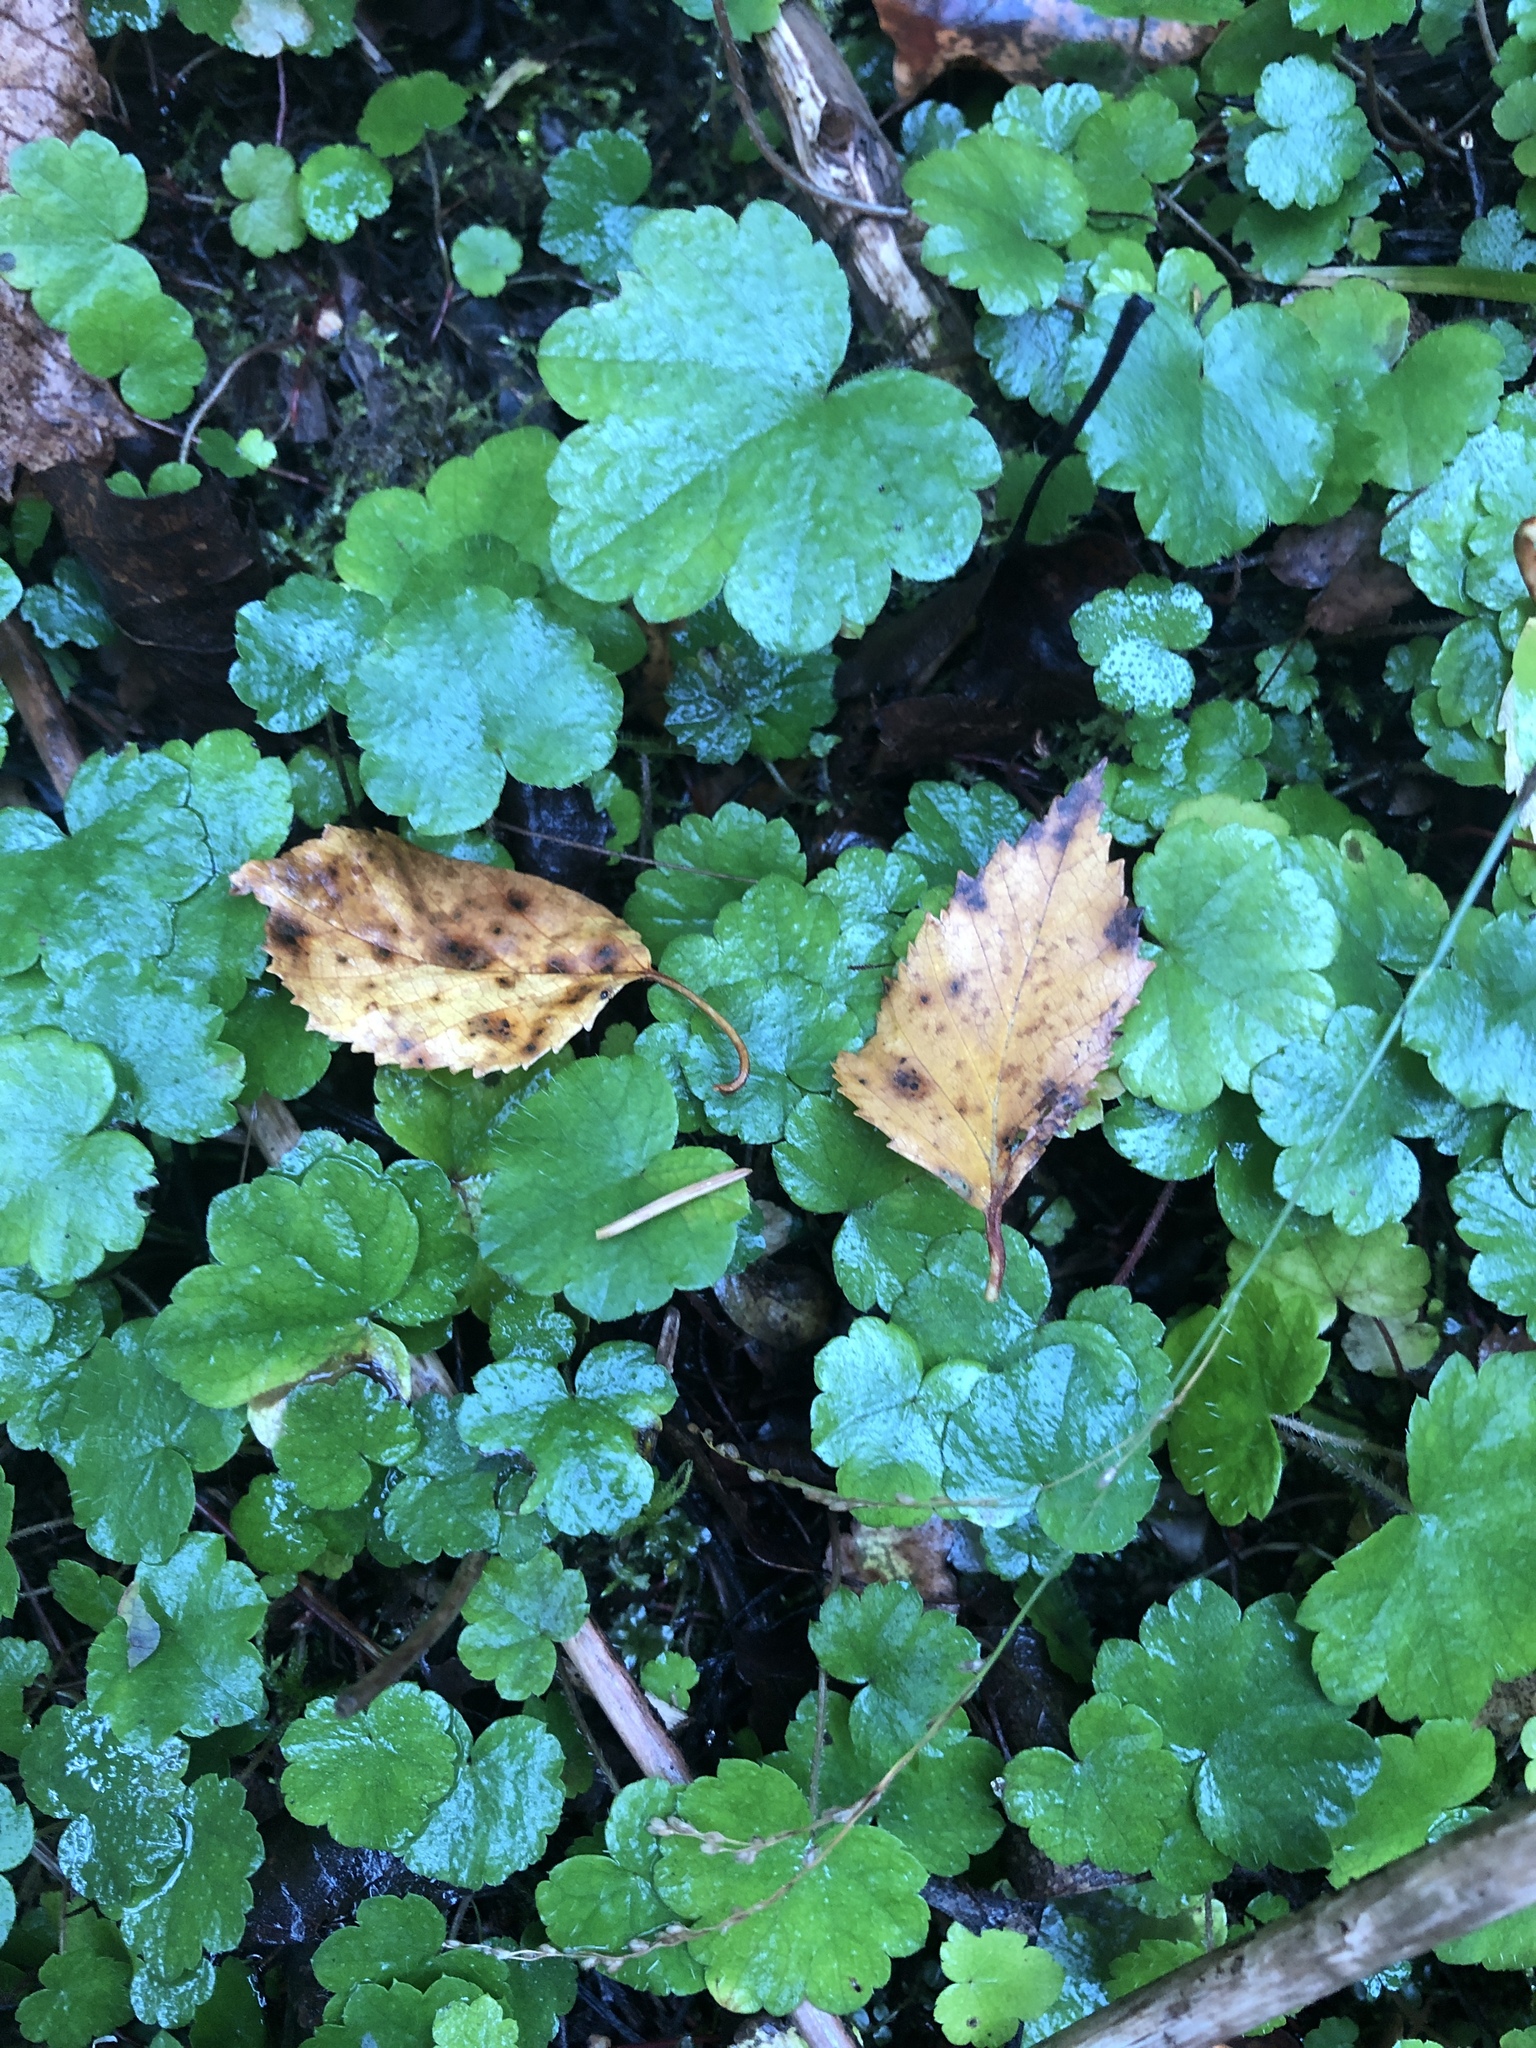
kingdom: Plantae
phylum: Tracheophyta
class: Magnoliopsida
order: Saxifragales
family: Saxifragaceae
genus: Mitella
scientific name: Mitella nuda
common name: Bare-stemmed bishop's-cap
